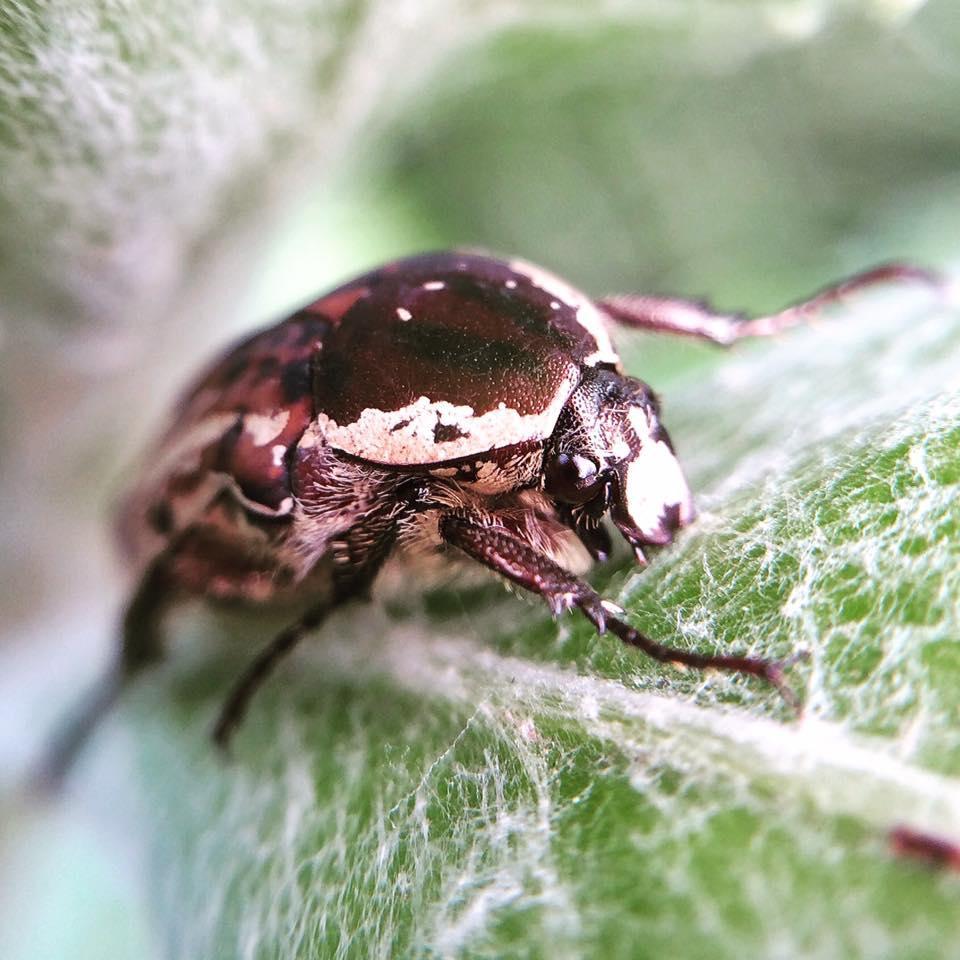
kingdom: Animalia
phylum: Arthropoda
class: Insecta
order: Coleoptera
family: Scarabaeidae
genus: Elaphinis
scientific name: Elaphinis irrorata
